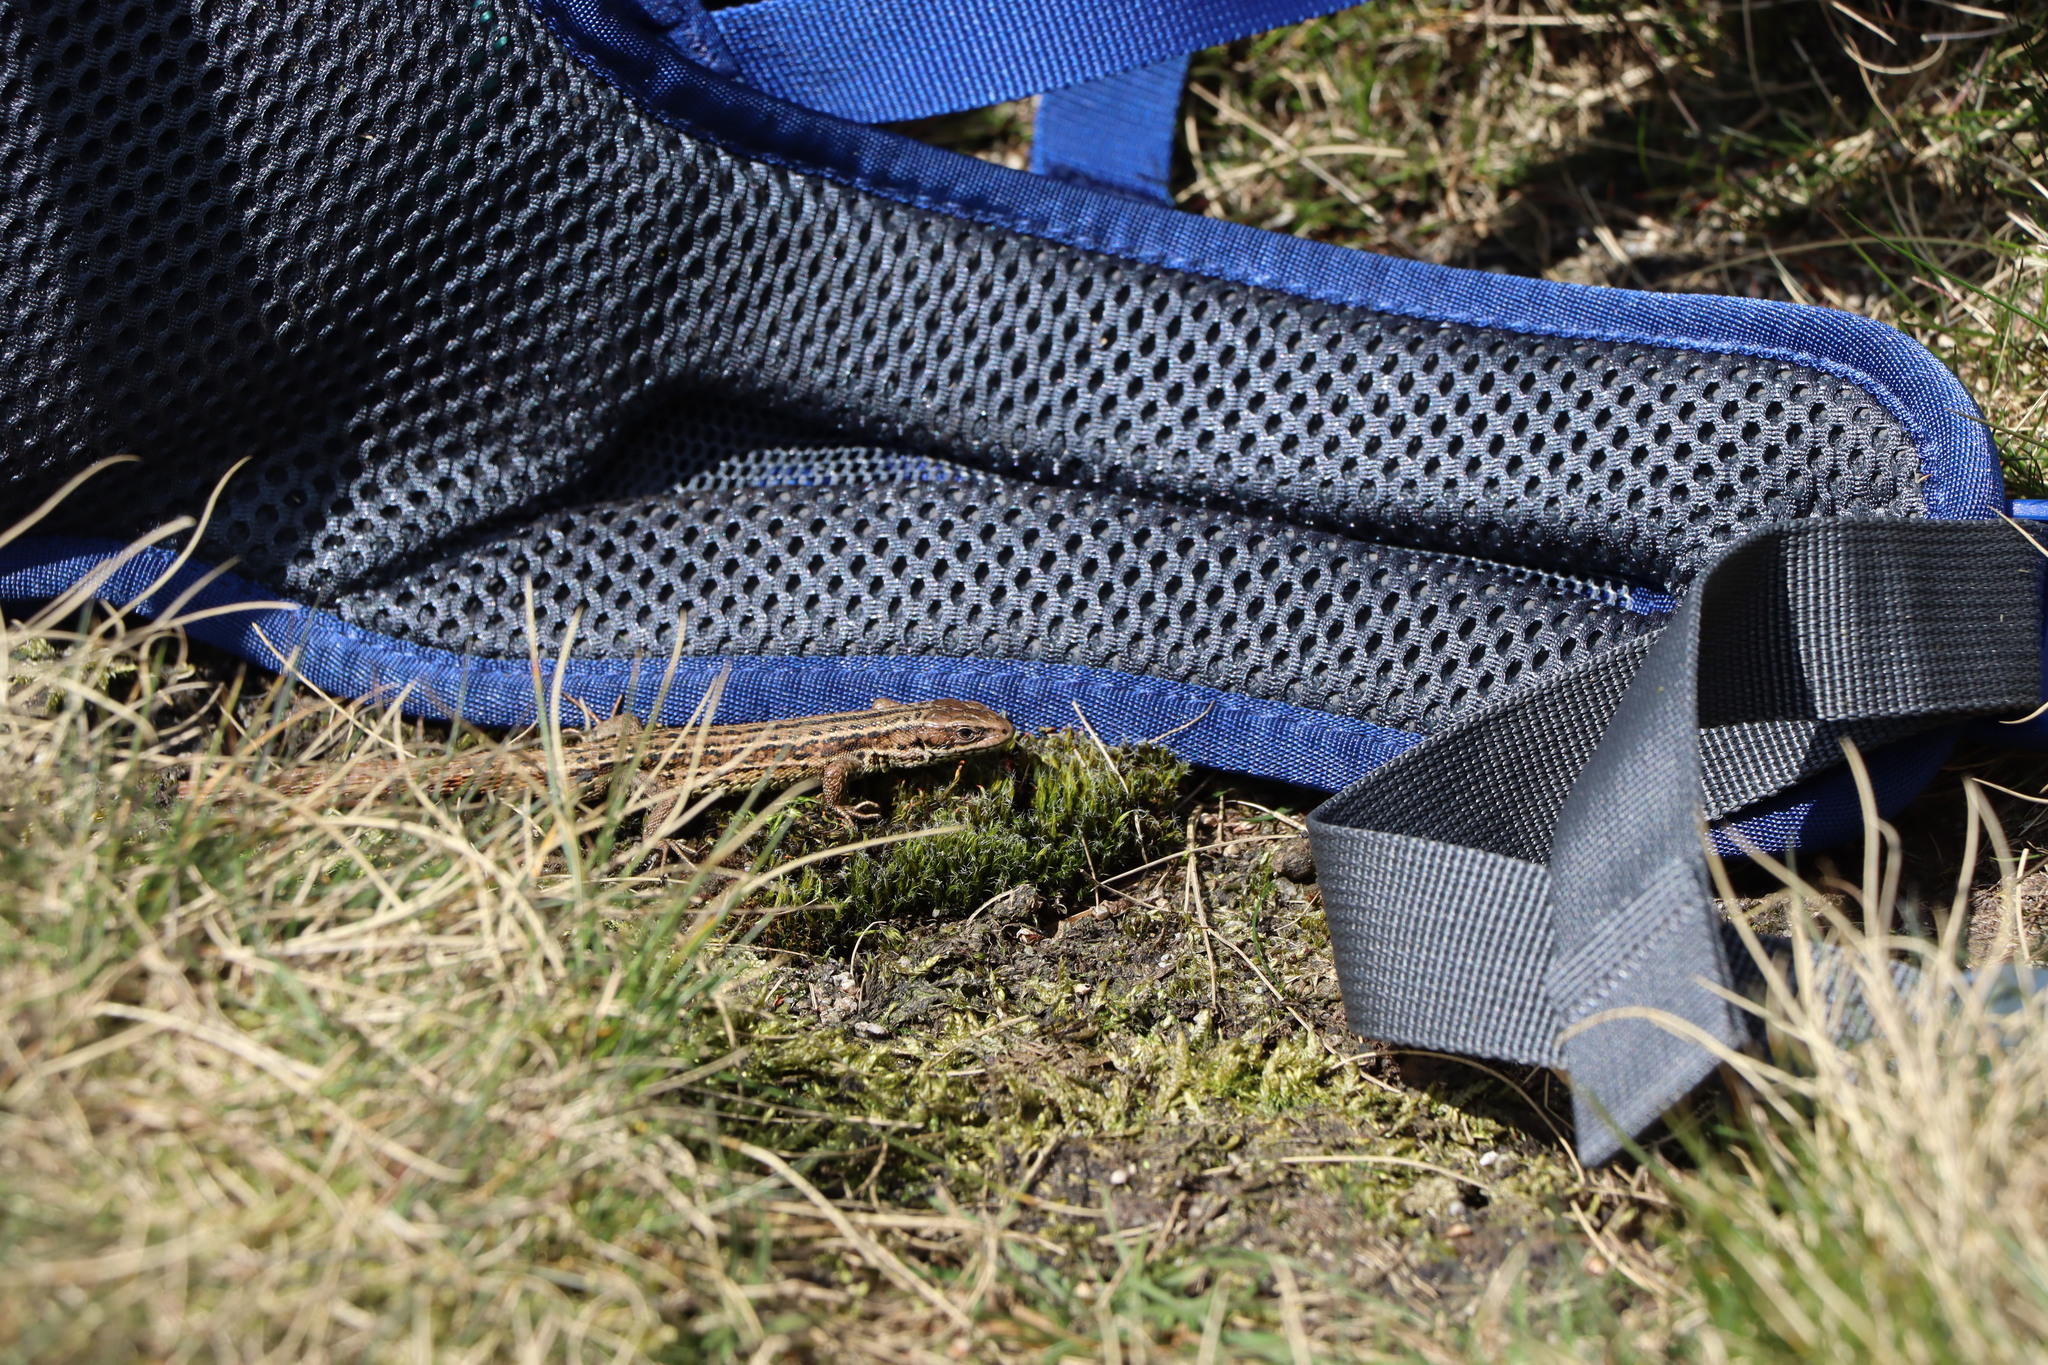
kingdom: Animalia
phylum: Chordata
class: Squamata
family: Lacertidae
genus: Zootoca
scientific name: Zootoca vivipara
